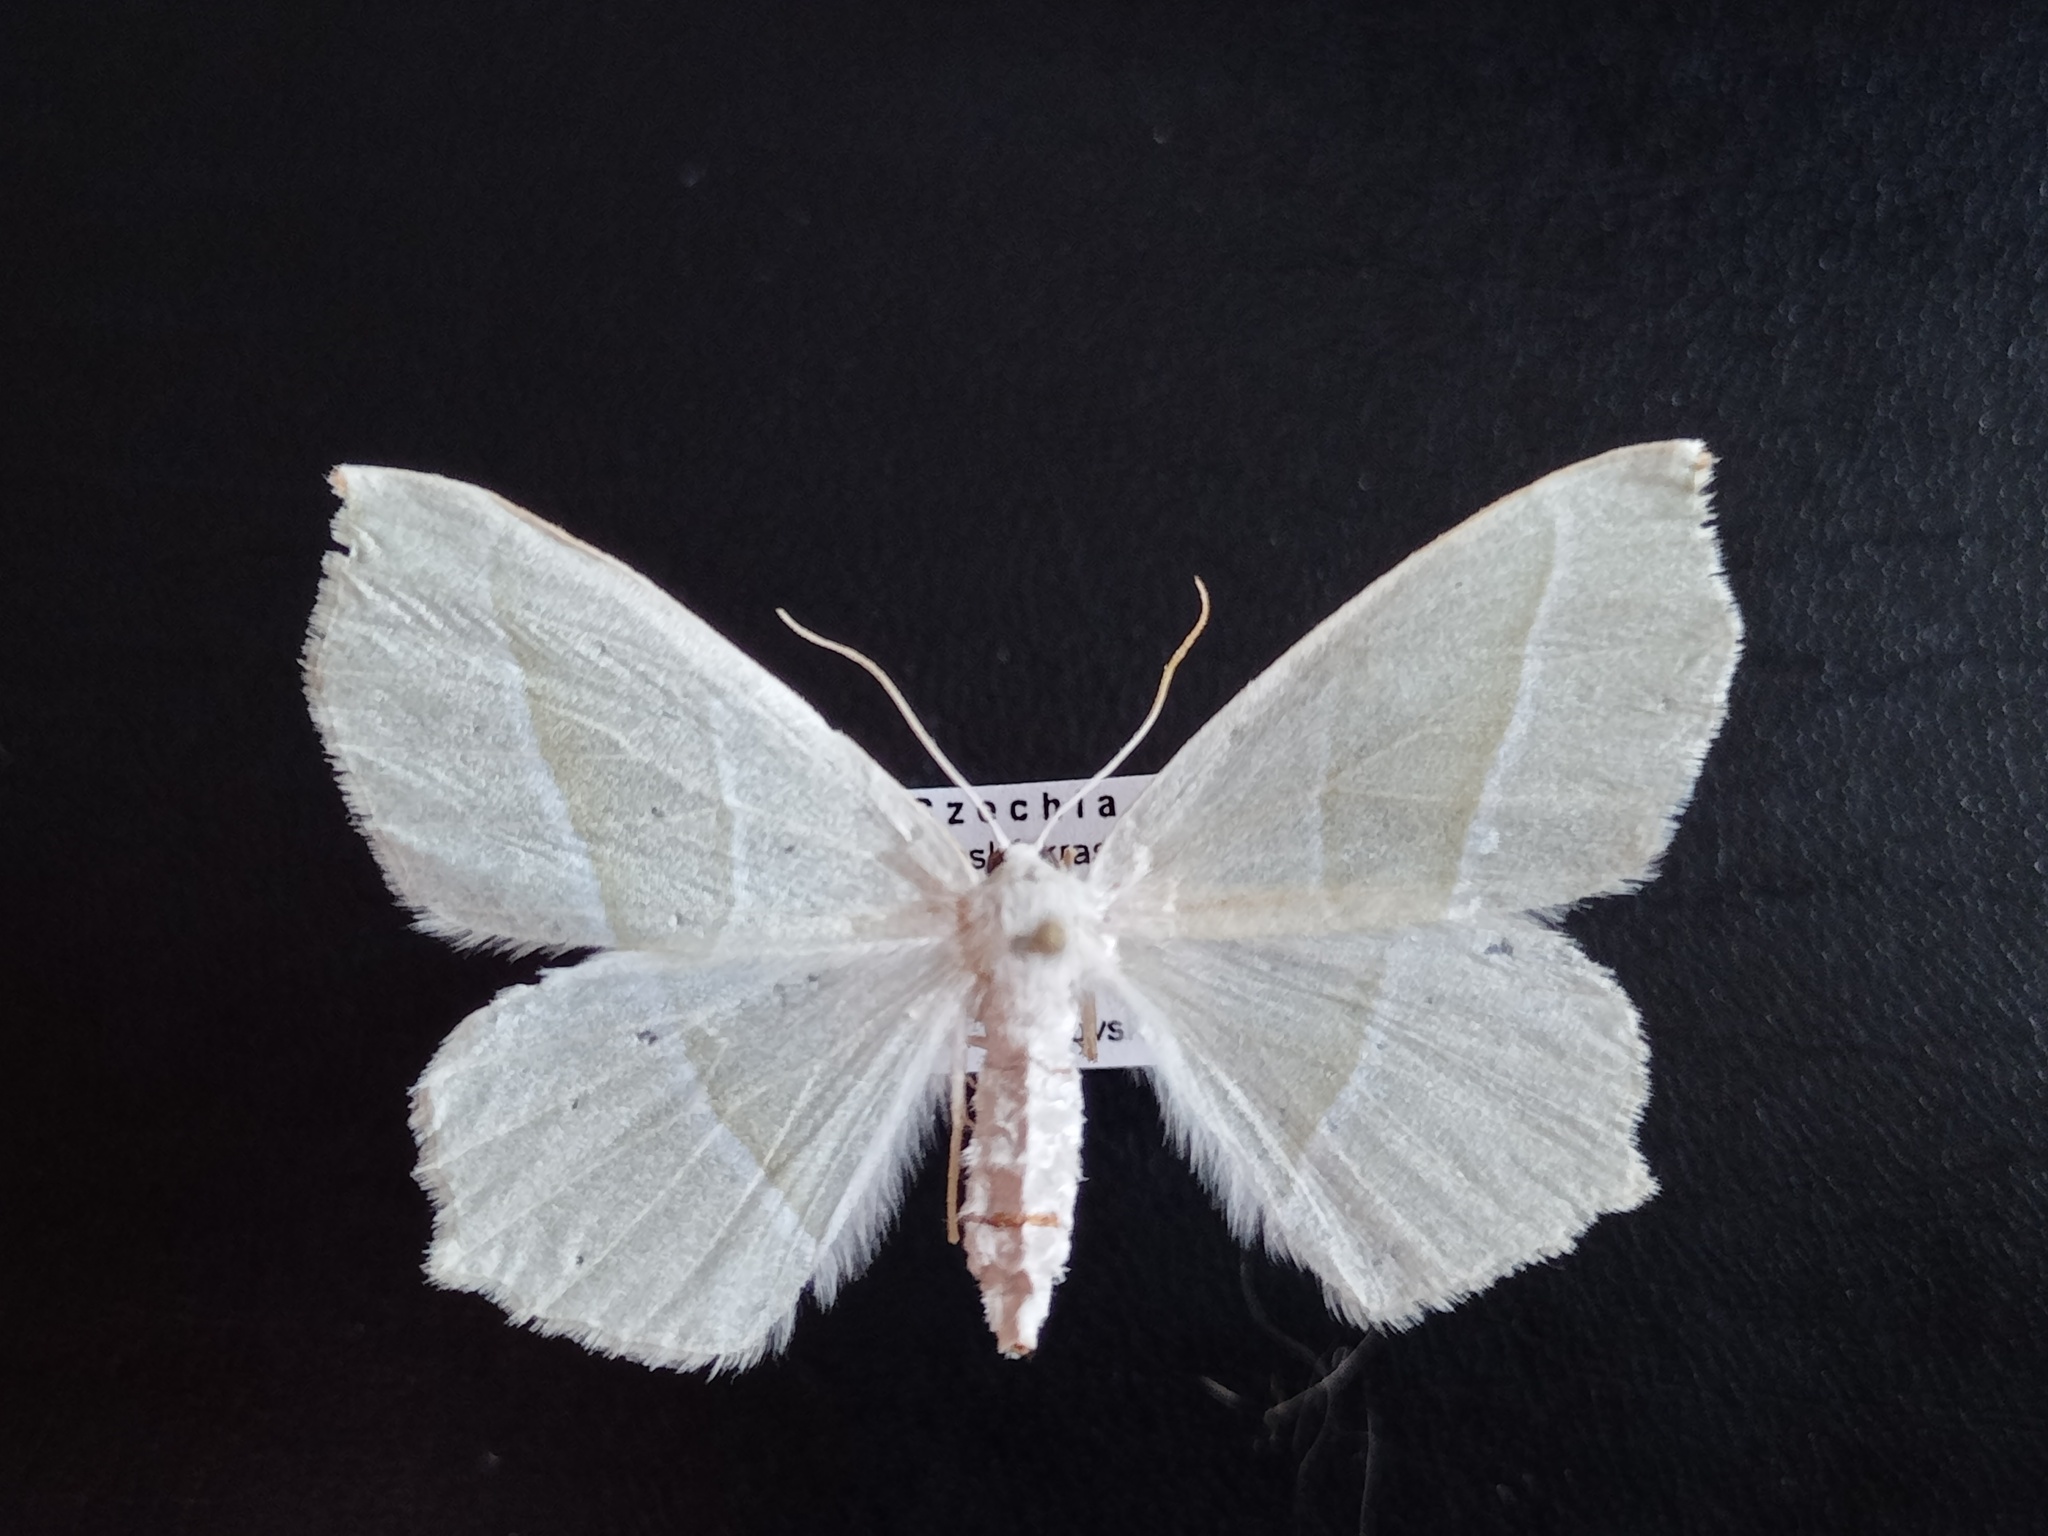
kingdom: Animalia
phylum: Arthropoda
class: Insecta
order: Lepidoptera
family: Geometridae
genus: Campaea
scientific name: Campaea margaritaria
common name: Light emerald
